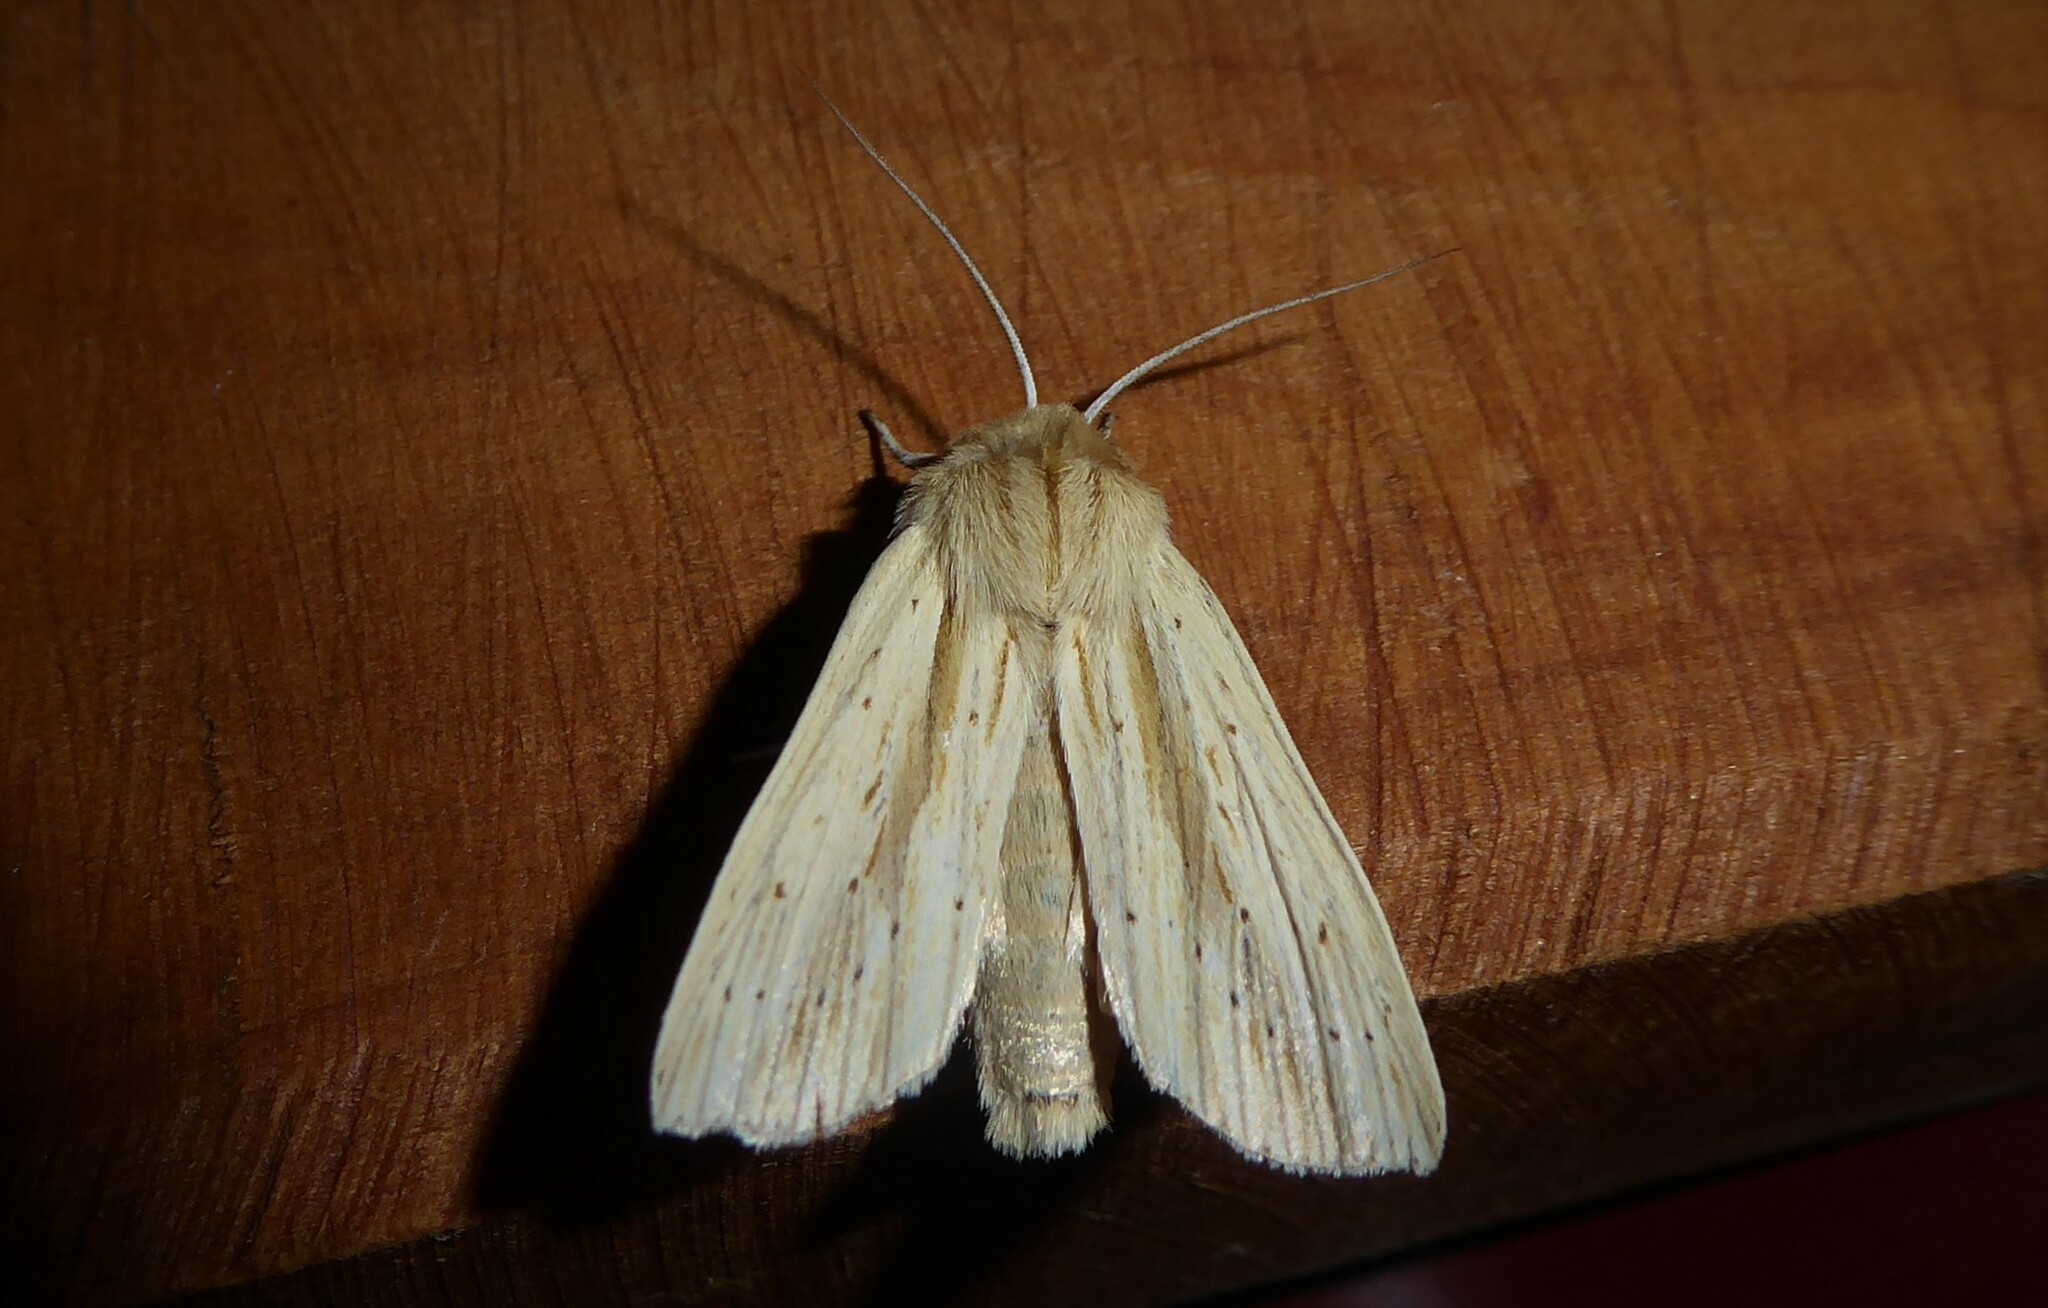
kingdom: Animalia
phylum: Arthropoda
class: Insecta
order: Lepidoptera
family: Noctuidae
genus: Ichneutica
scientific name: Ichneutica semivittata
